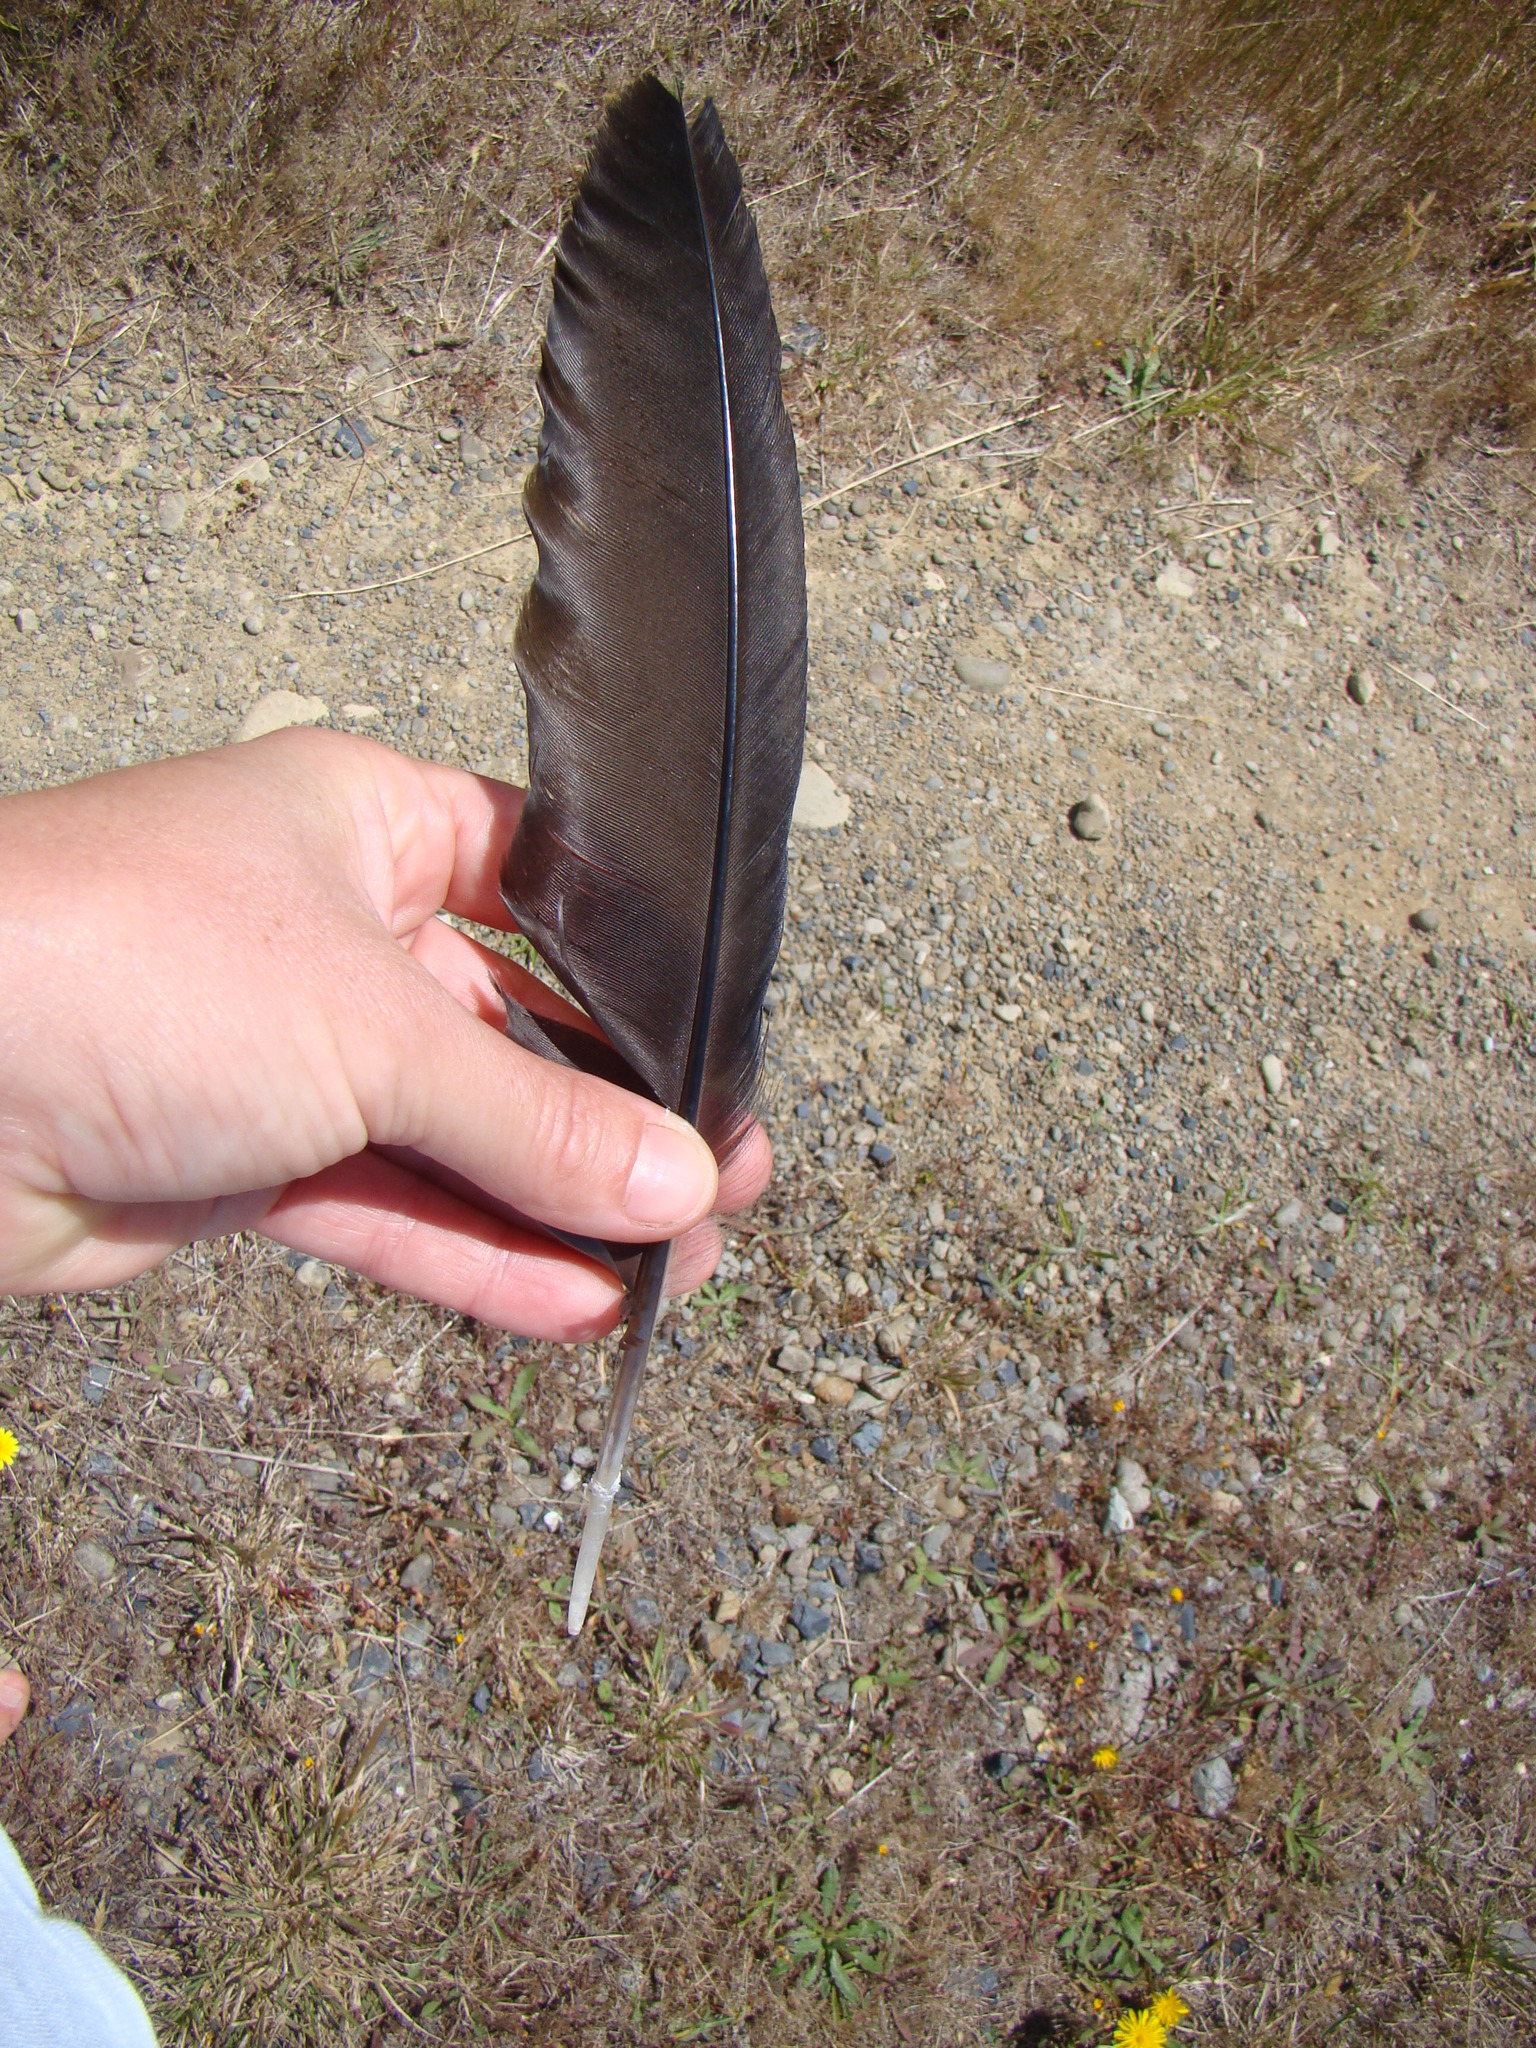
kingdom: Animalia
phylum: Chordata
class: Aves
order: Gruiformes
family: Rallidae
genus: Porphyrio
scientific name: Porphyrio melanotus
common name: Australasian swamphen
